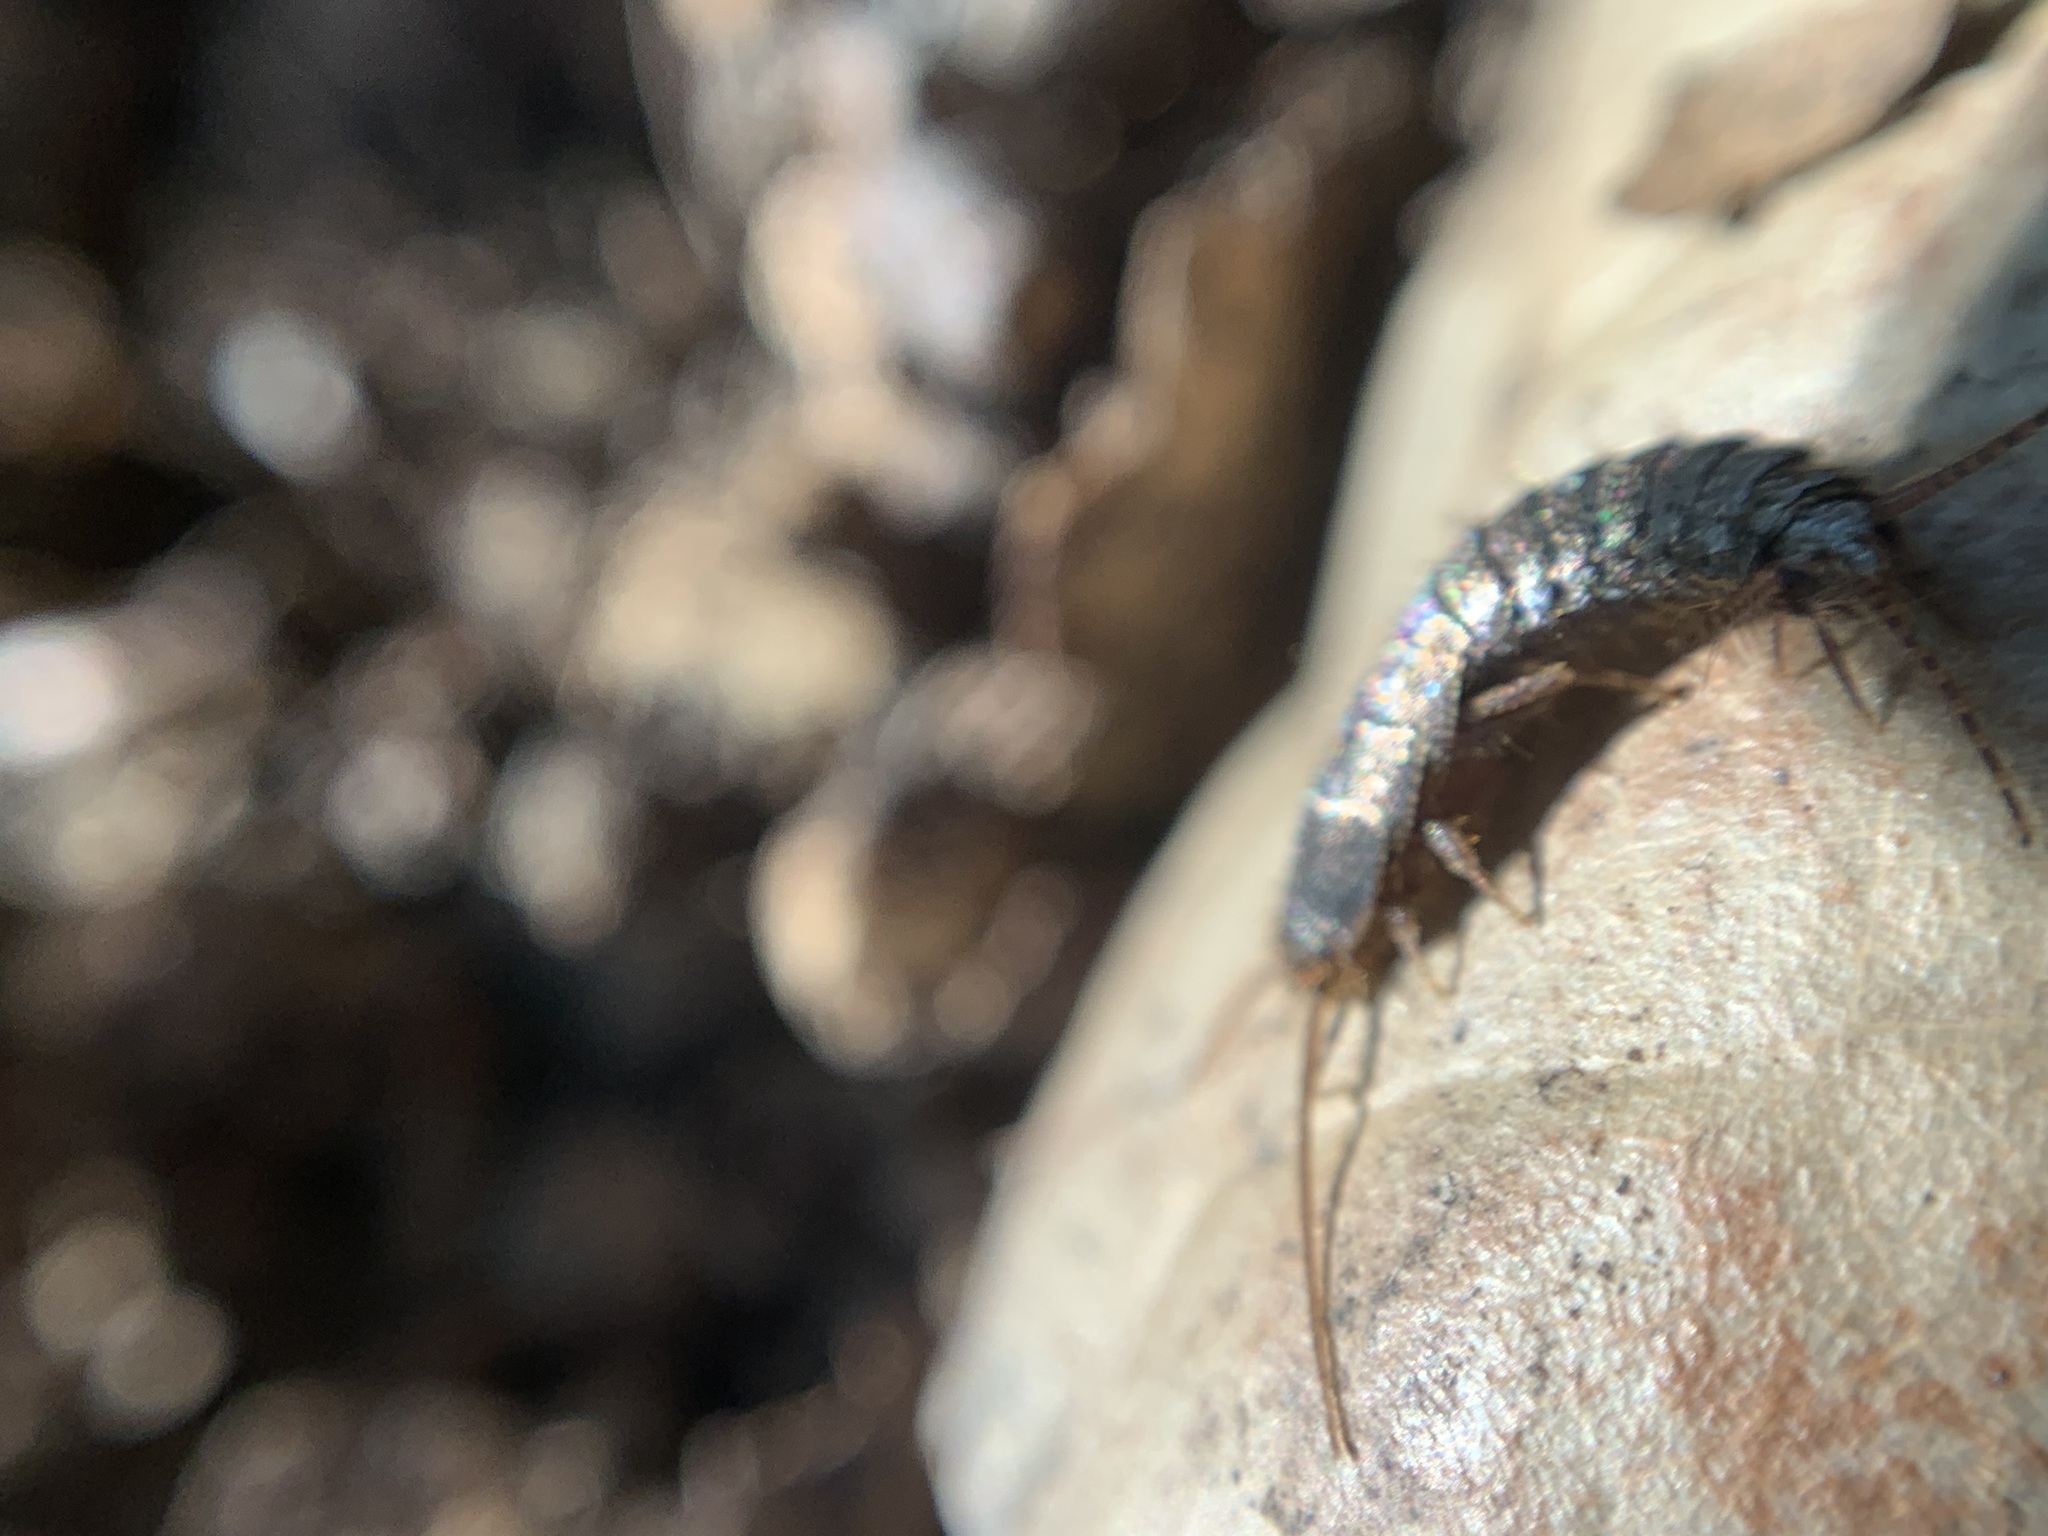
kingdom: Animalia
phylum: Arthropoda
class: Insecta
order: Zygentoma
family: Lepismatidae
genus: Allacrotelsa
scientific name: Allacrotelsa spinulata
